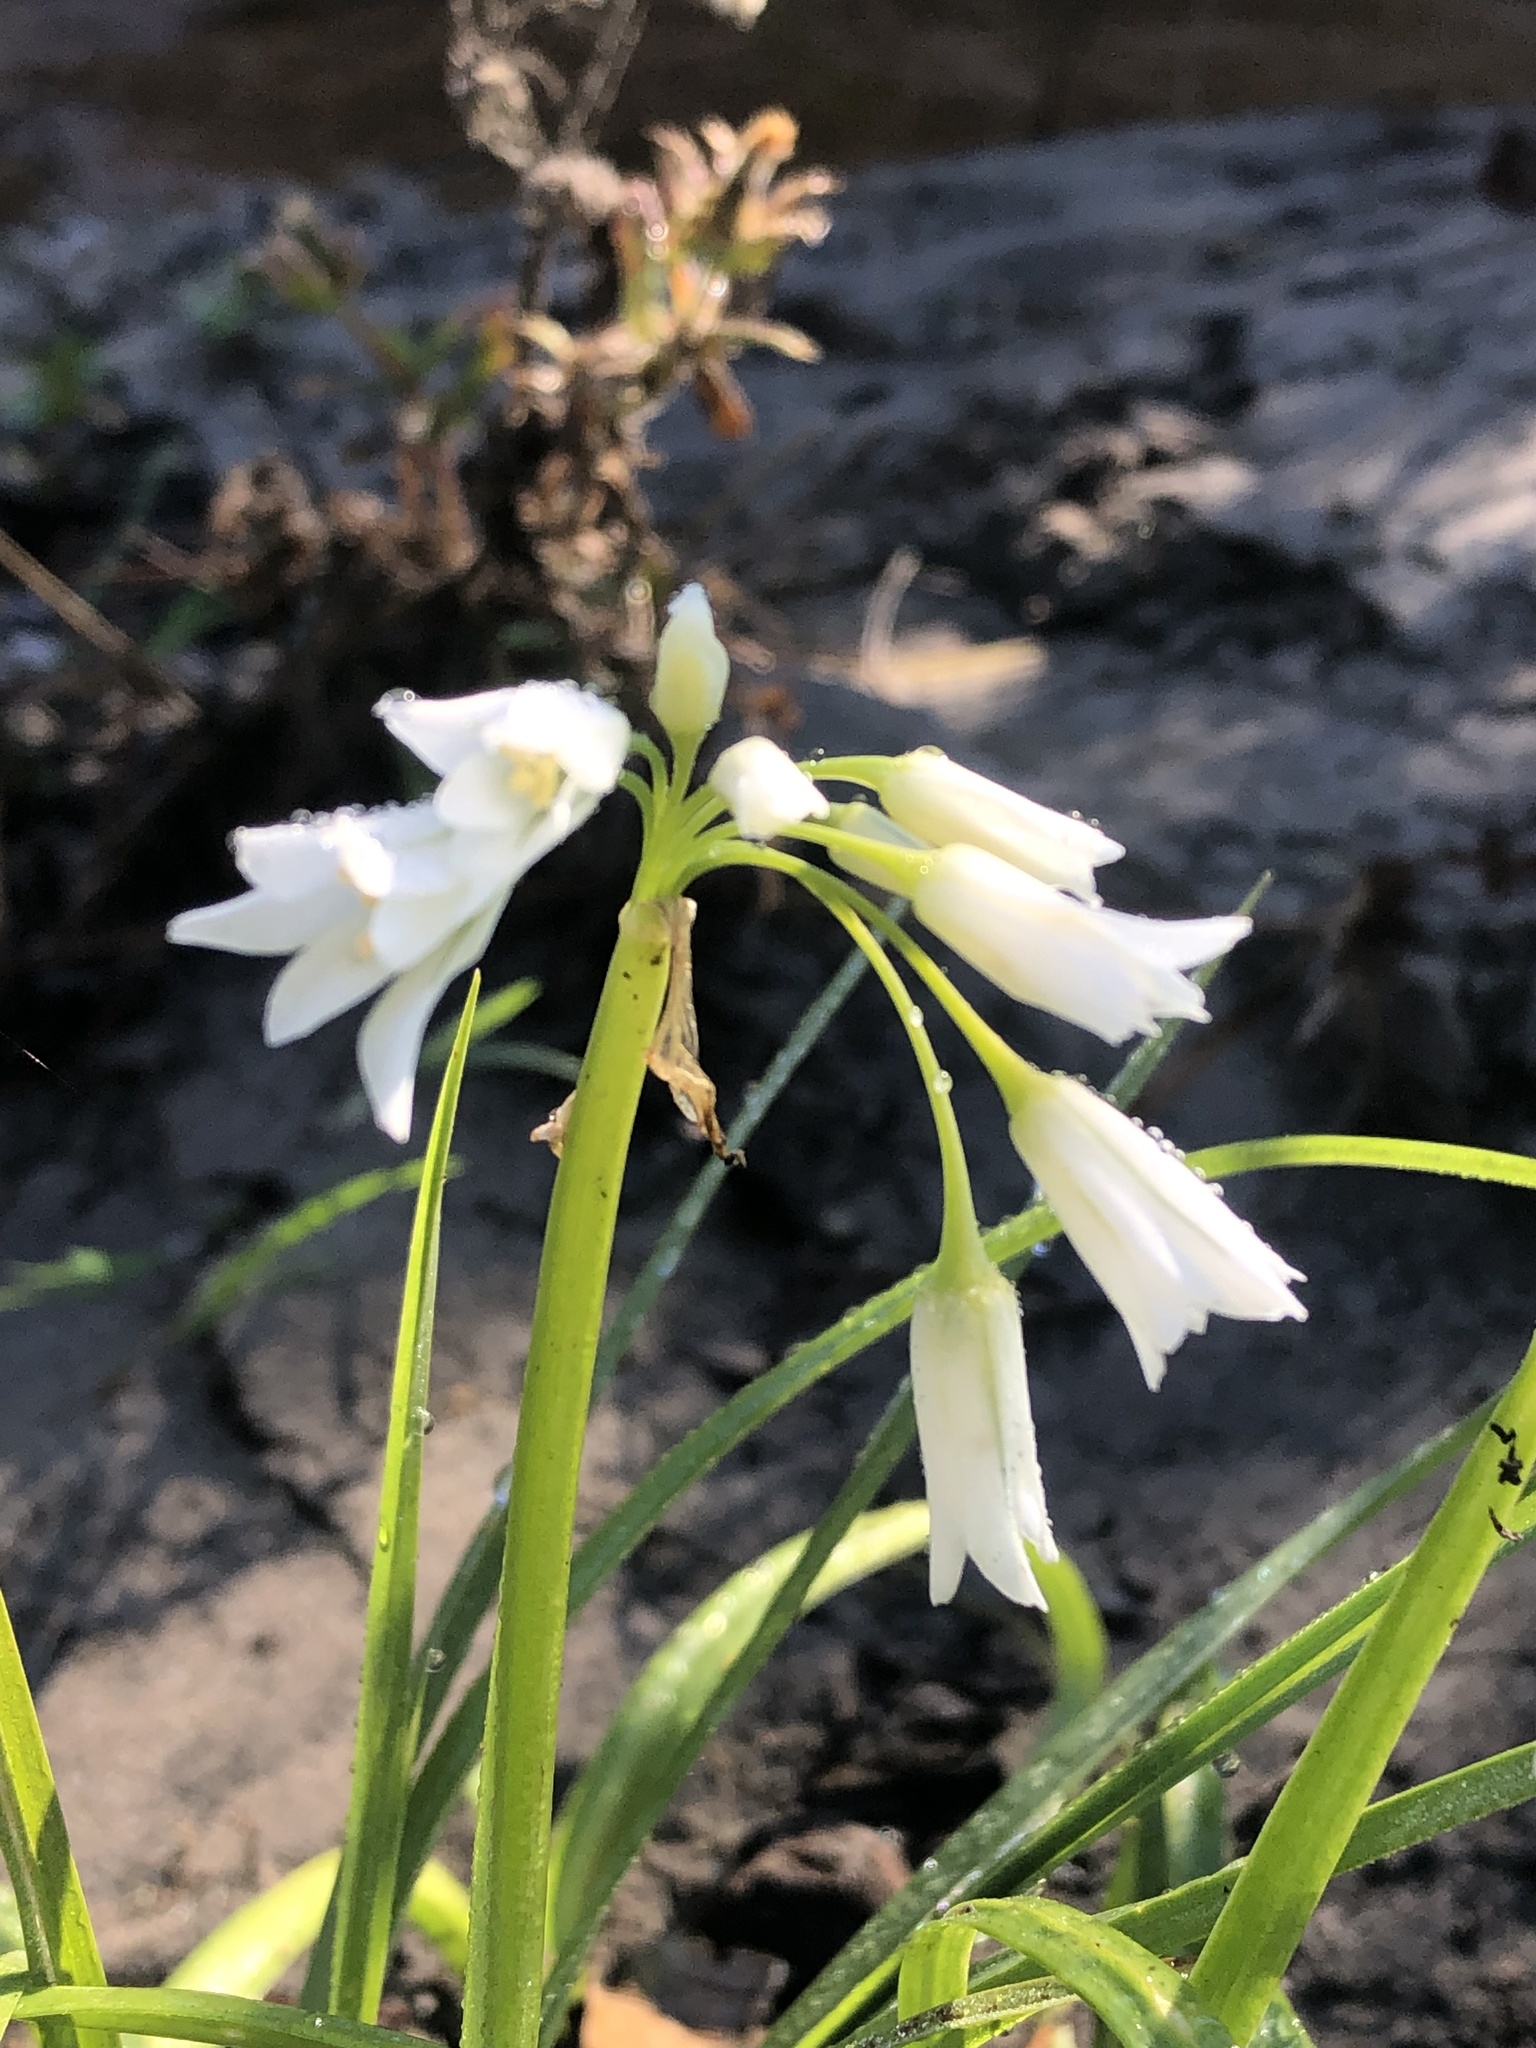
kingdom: Plantae
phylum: Tracheophyta
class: Liliopsida
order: Asparagales
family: Amaryllidaceae
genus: Allium
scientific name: Allium triquetrum
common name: Three-cornered garlic
